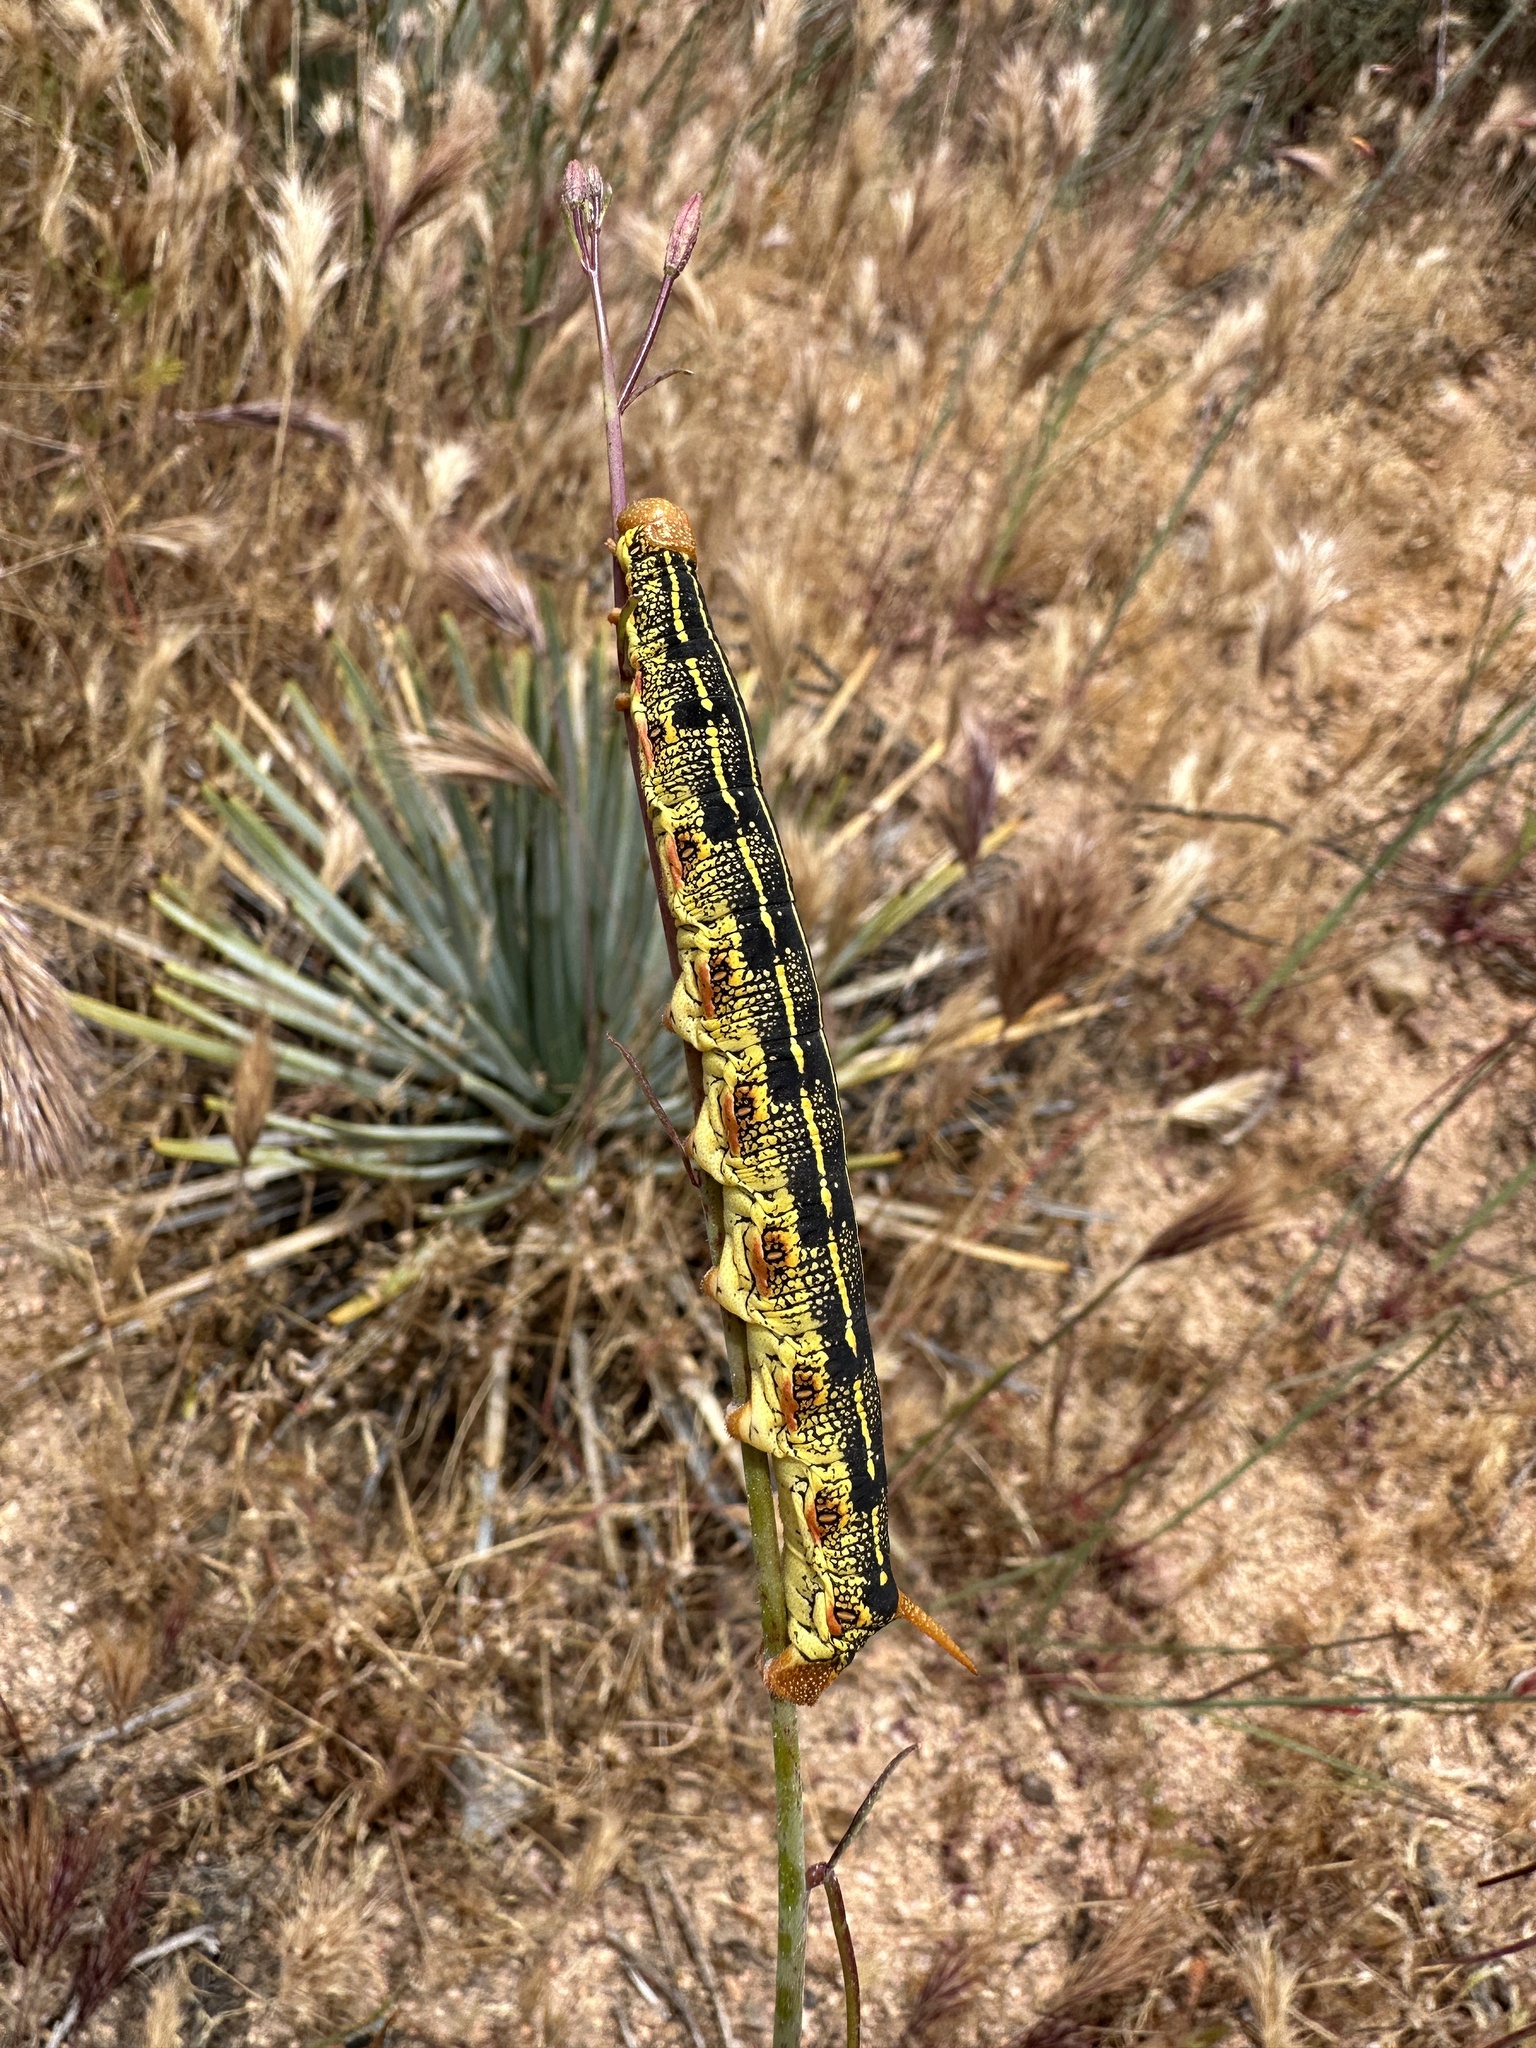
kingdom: Animalia
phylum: Arthropoda
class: Insecta
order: Lepidoptera
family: Sphingidae
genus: Hyles
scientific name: Hyles lineata
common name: White-lined sphinx
